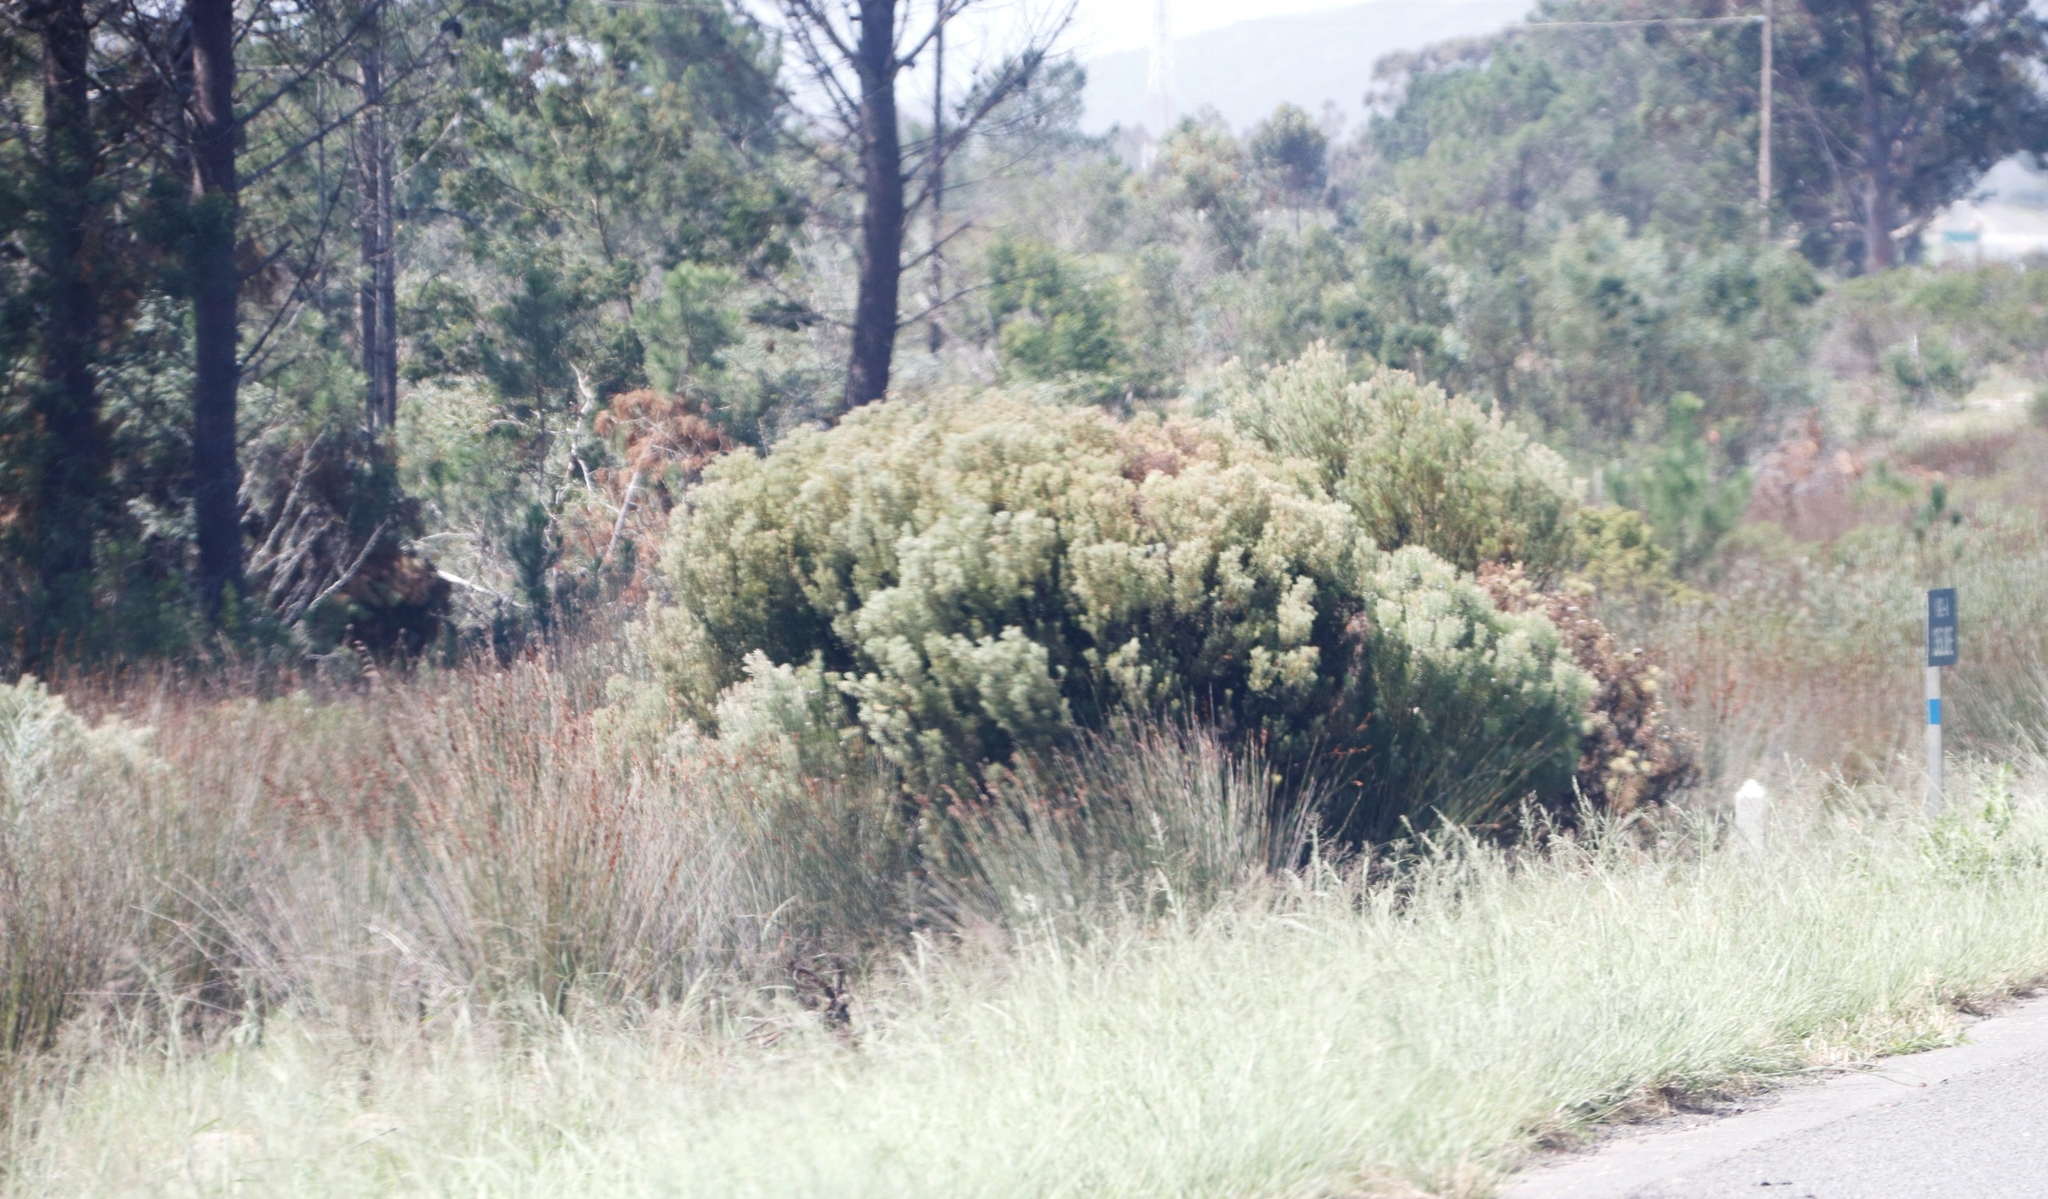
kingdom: Plantae
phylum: Tracheophyta
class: Magnoliopsida
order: Proteales
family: Proteaceae
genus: Leucadendron
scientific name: Leucadendron galpinii
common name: Hairless conebush
